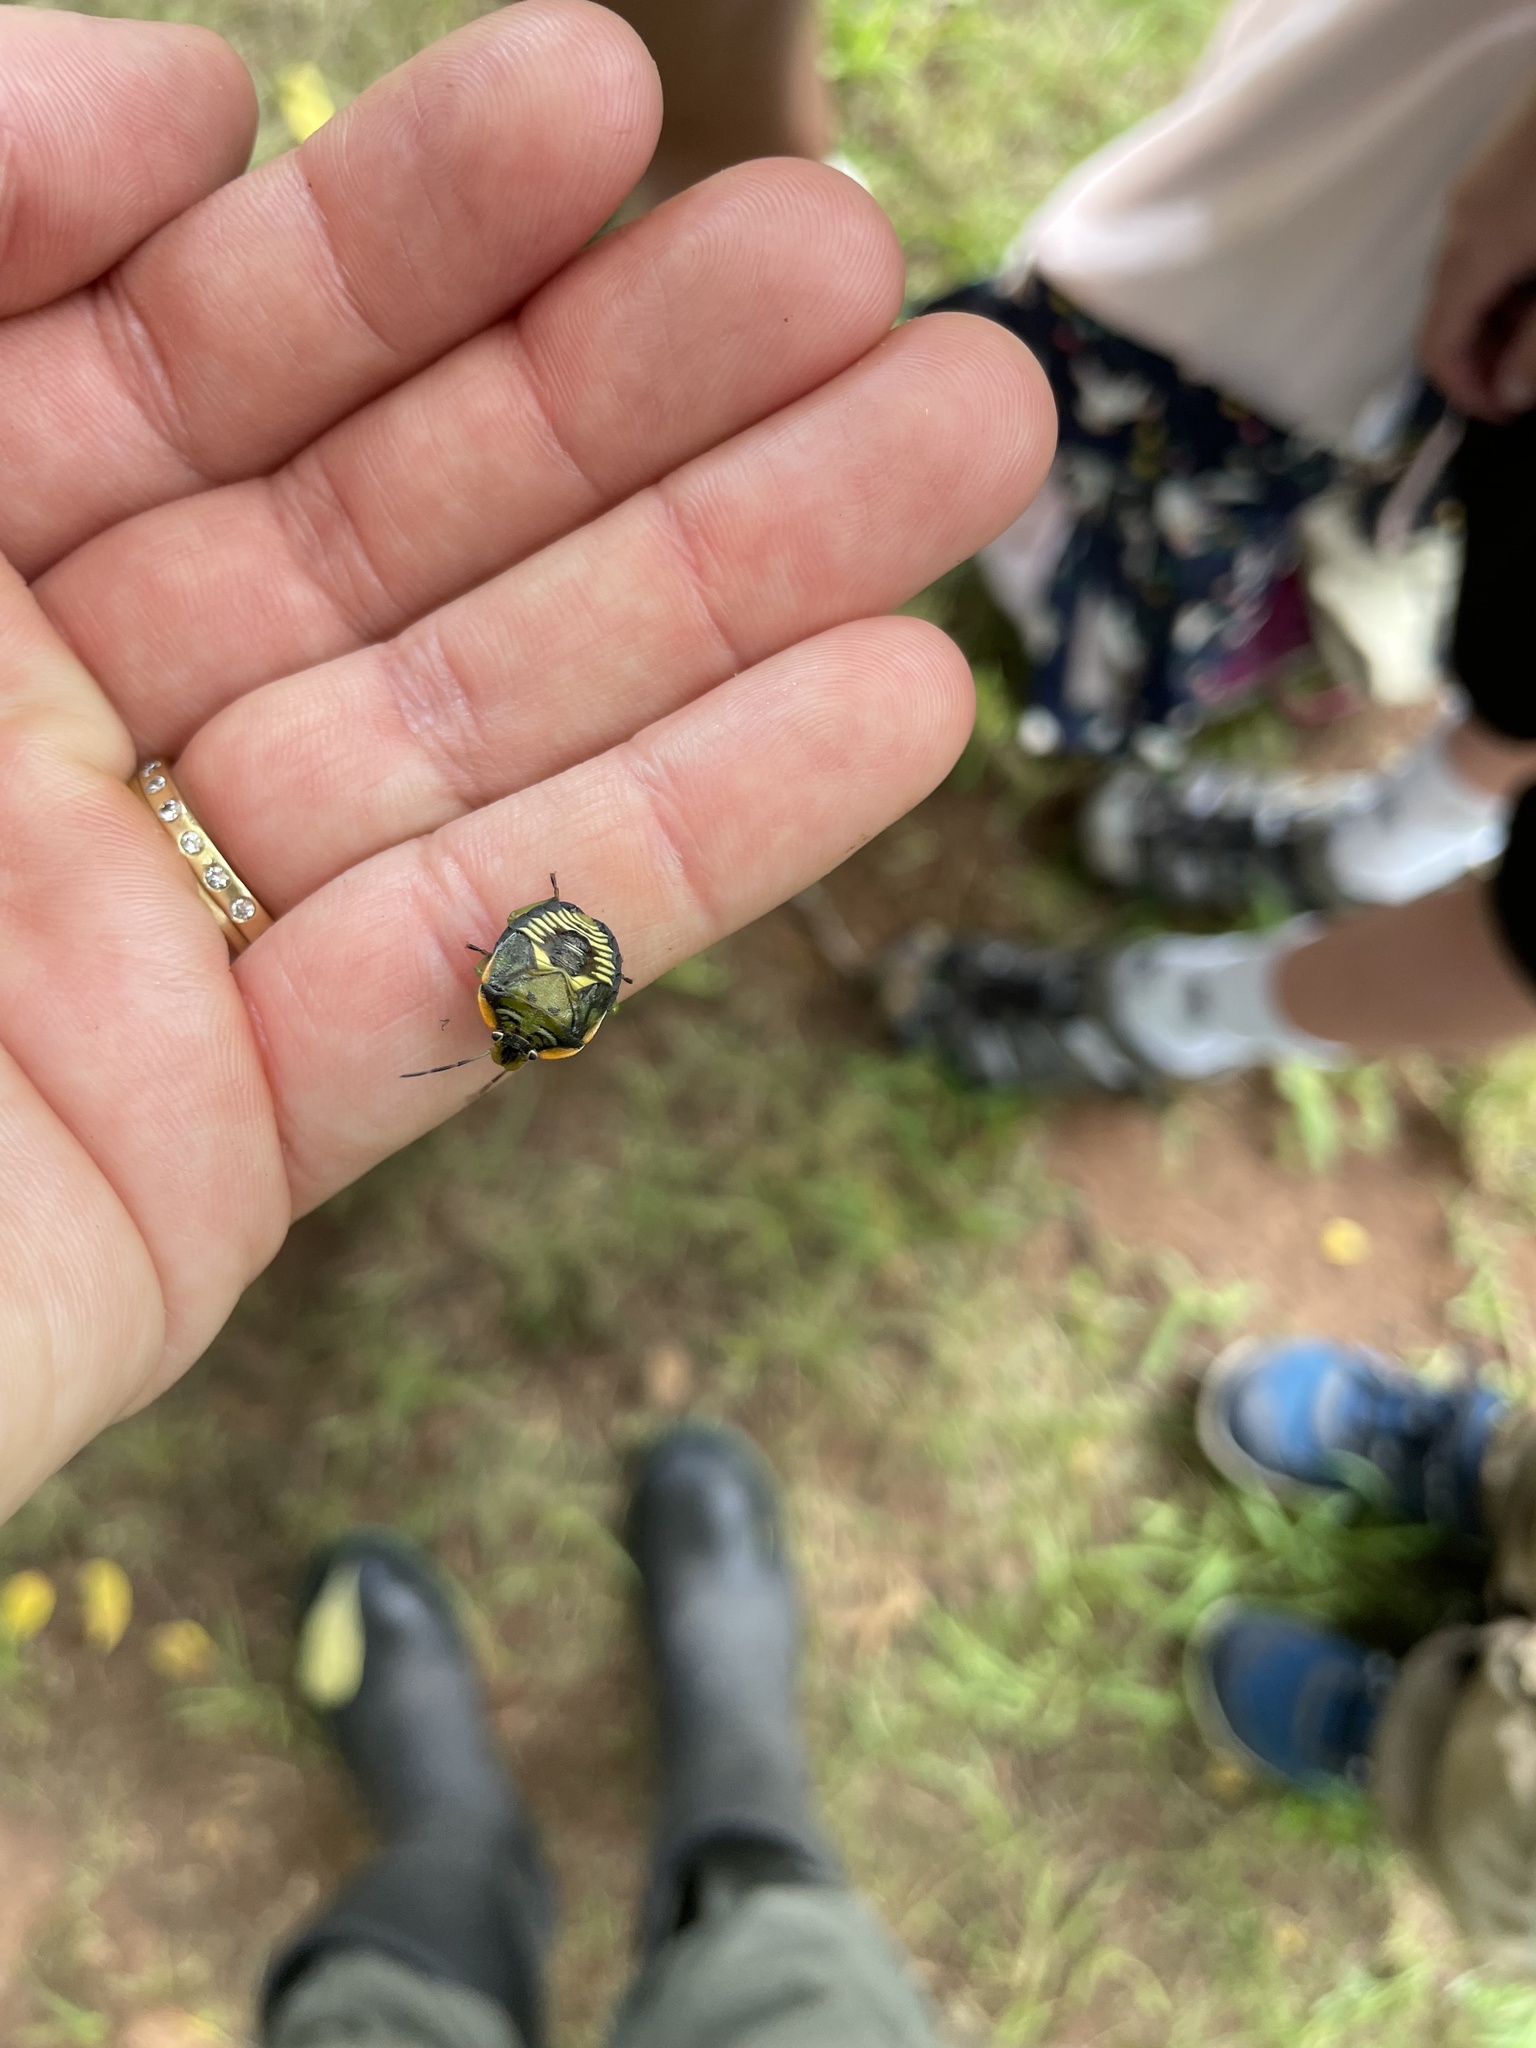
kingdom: Animalia
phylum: Arthropoda
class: Insecta
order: Hemiptera
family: Pentatomidae
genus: Chinavia
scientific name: Chinavia hilaris
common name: Green stink bug
